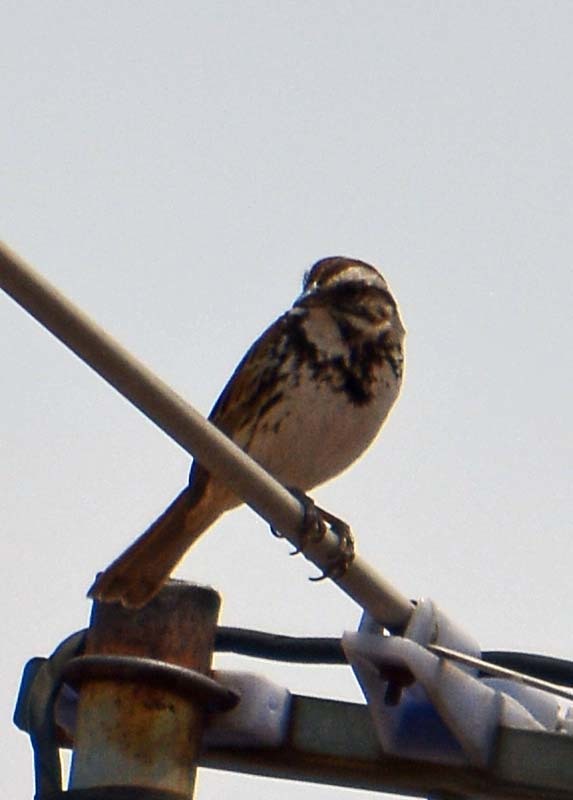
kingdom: Animalia
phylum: Chordata
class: Aves
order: Passeriformes
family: Passerellidae
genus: Melospiza
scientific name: Melospiza melodia
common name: Song sparrow
